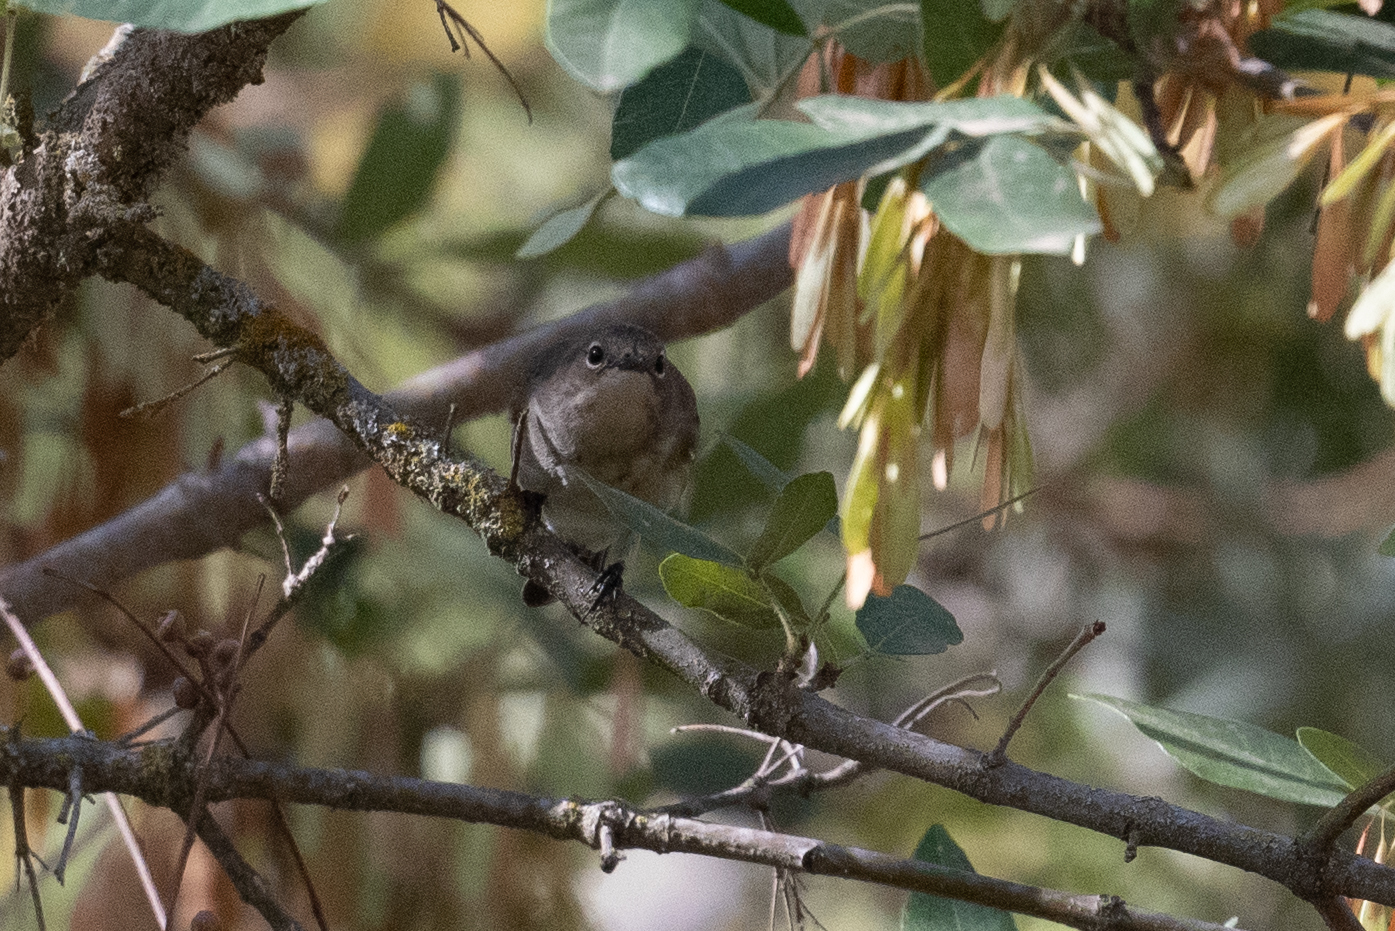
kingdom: Animalia
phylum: Chordata
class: Aves
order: Passeriformes
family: Parulidae
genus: Setophaga
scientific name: Setophaga coronata
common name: Myrtle warbler
